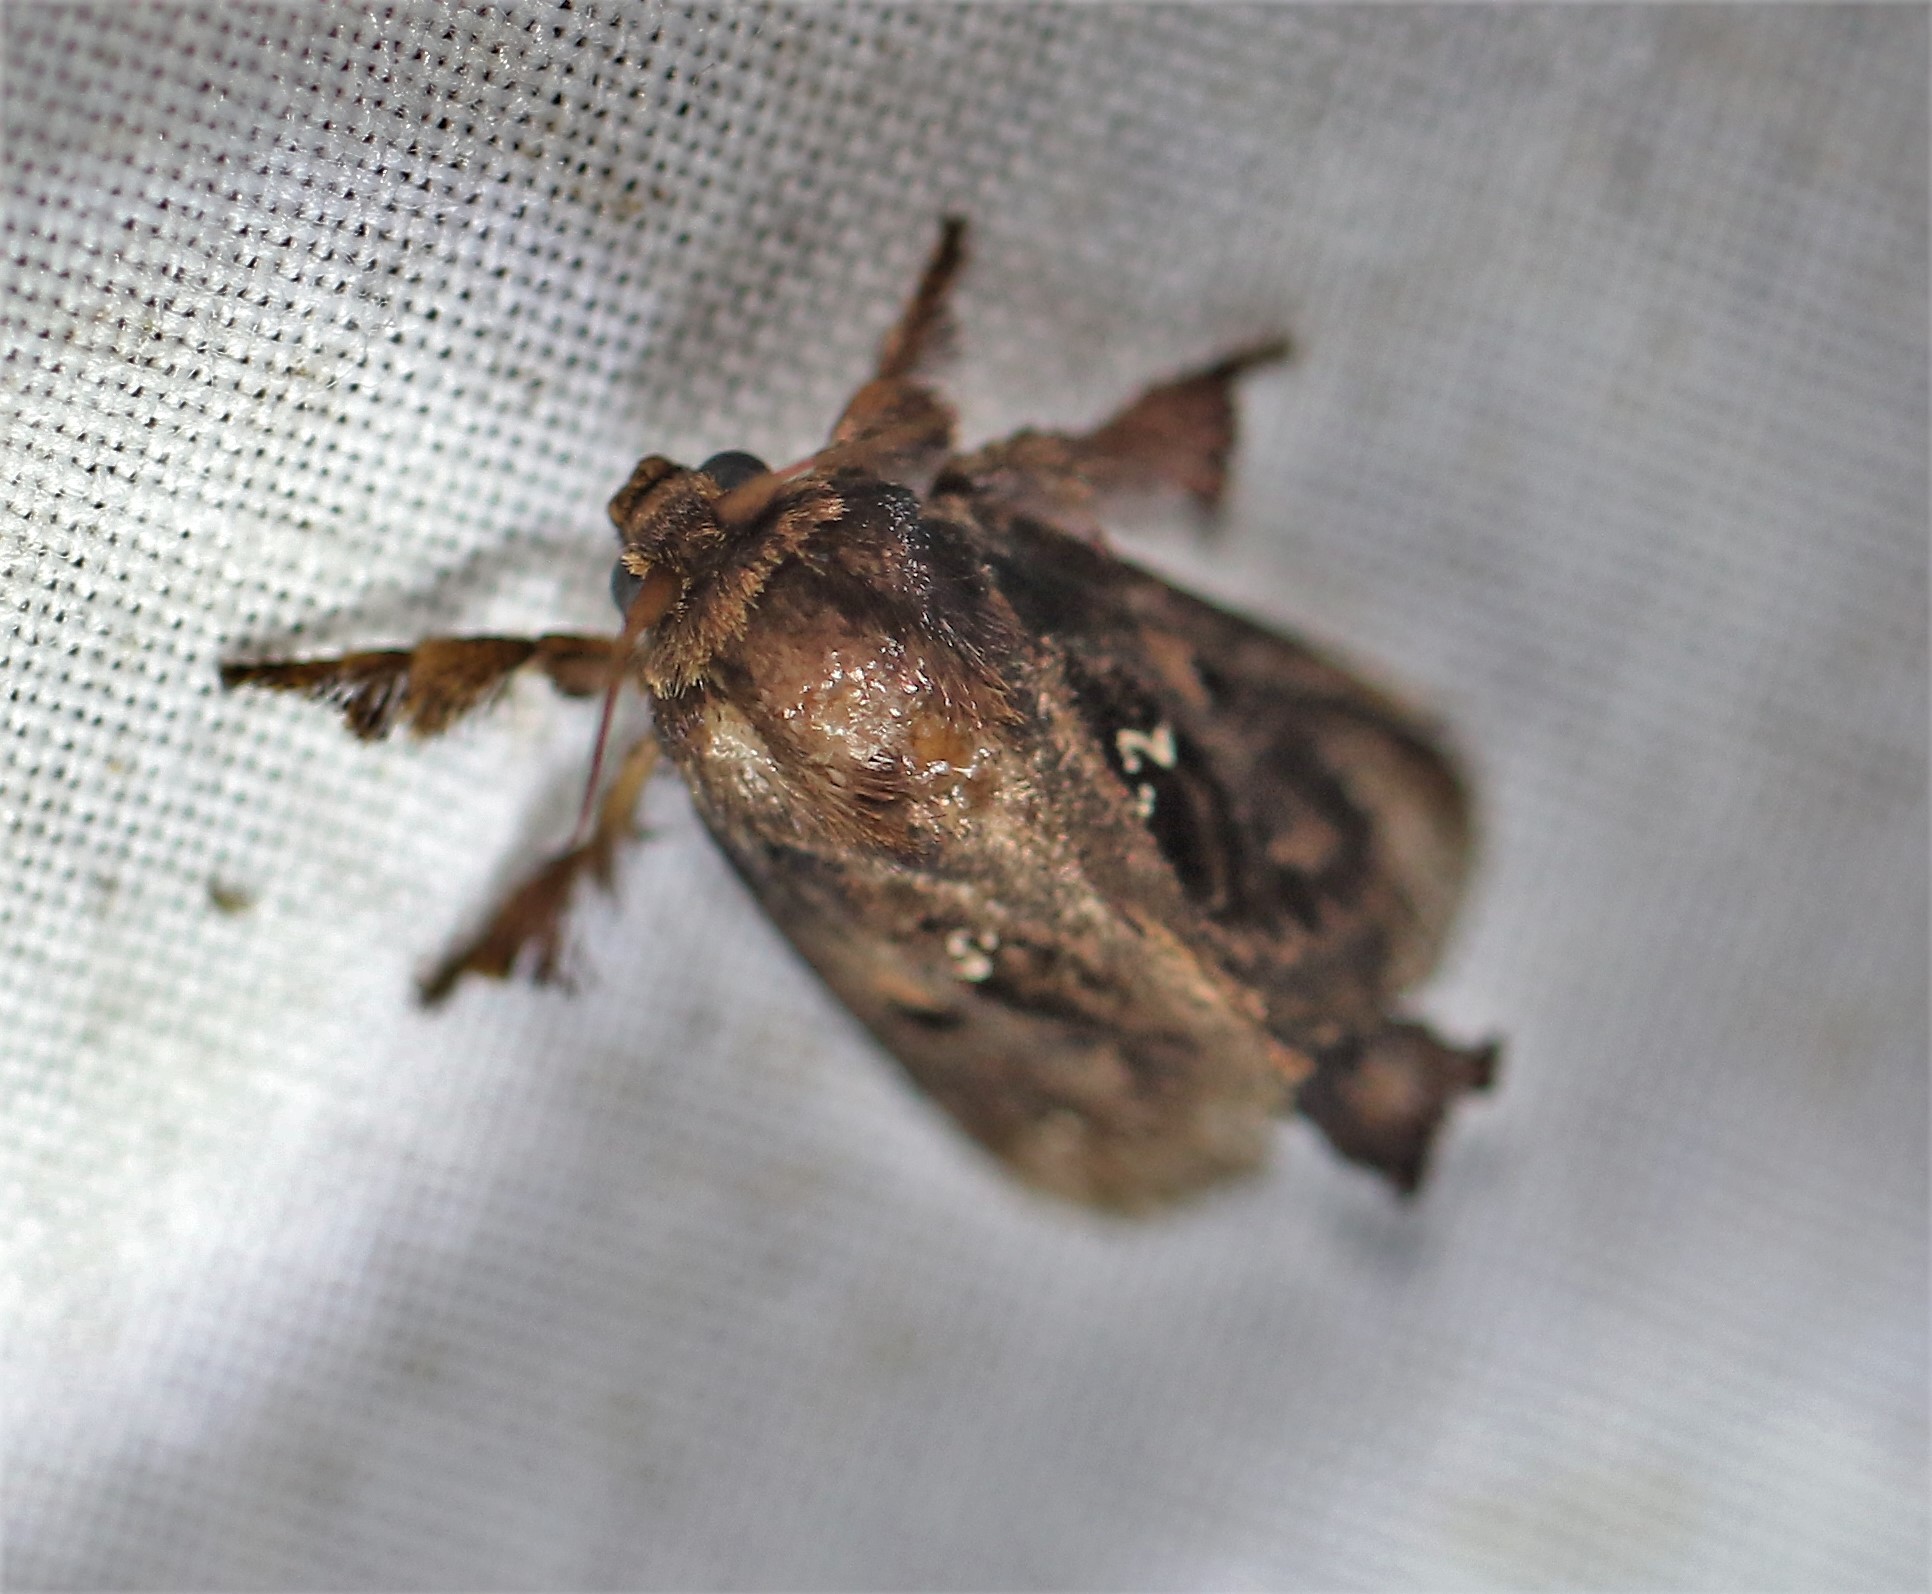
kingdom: Animalia
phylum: Arthropoda
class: Insecta
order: Lepidoptera
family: Limacodidae
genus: Euclea
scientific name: Euclea buscki
